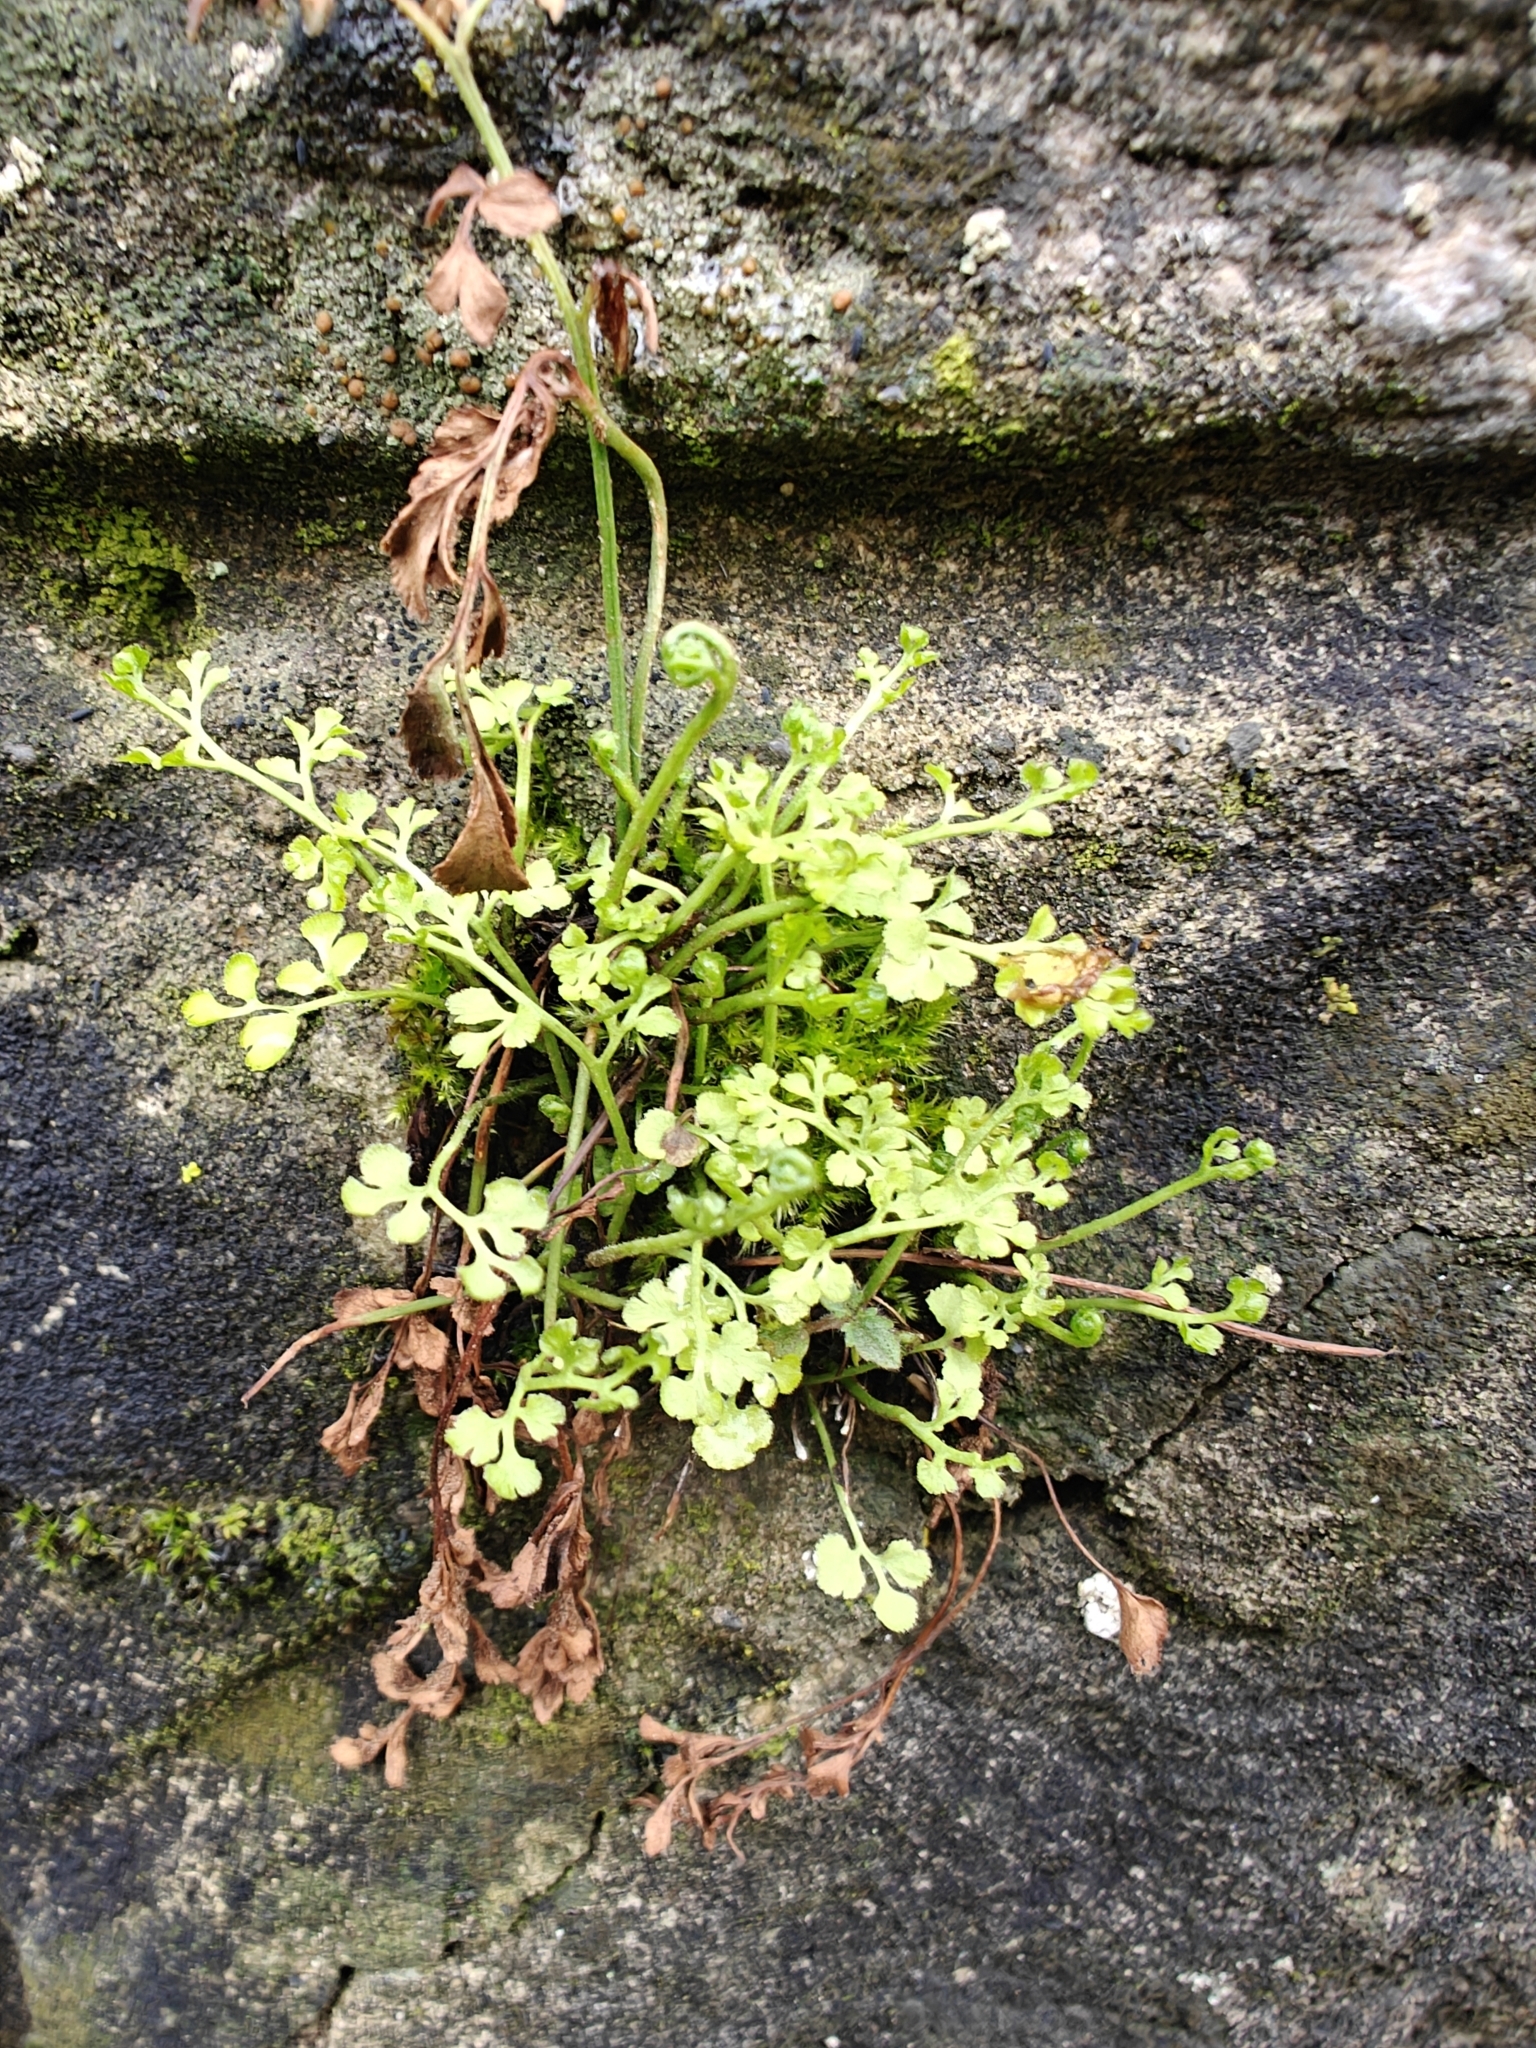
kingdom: Plantae
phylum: Tracheophyta
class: Polypodiopsida
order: Polypodiales
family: Aspleniaceae
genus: Asplenium
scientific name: Asplenium ruta-muraria
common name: Wall-rue
